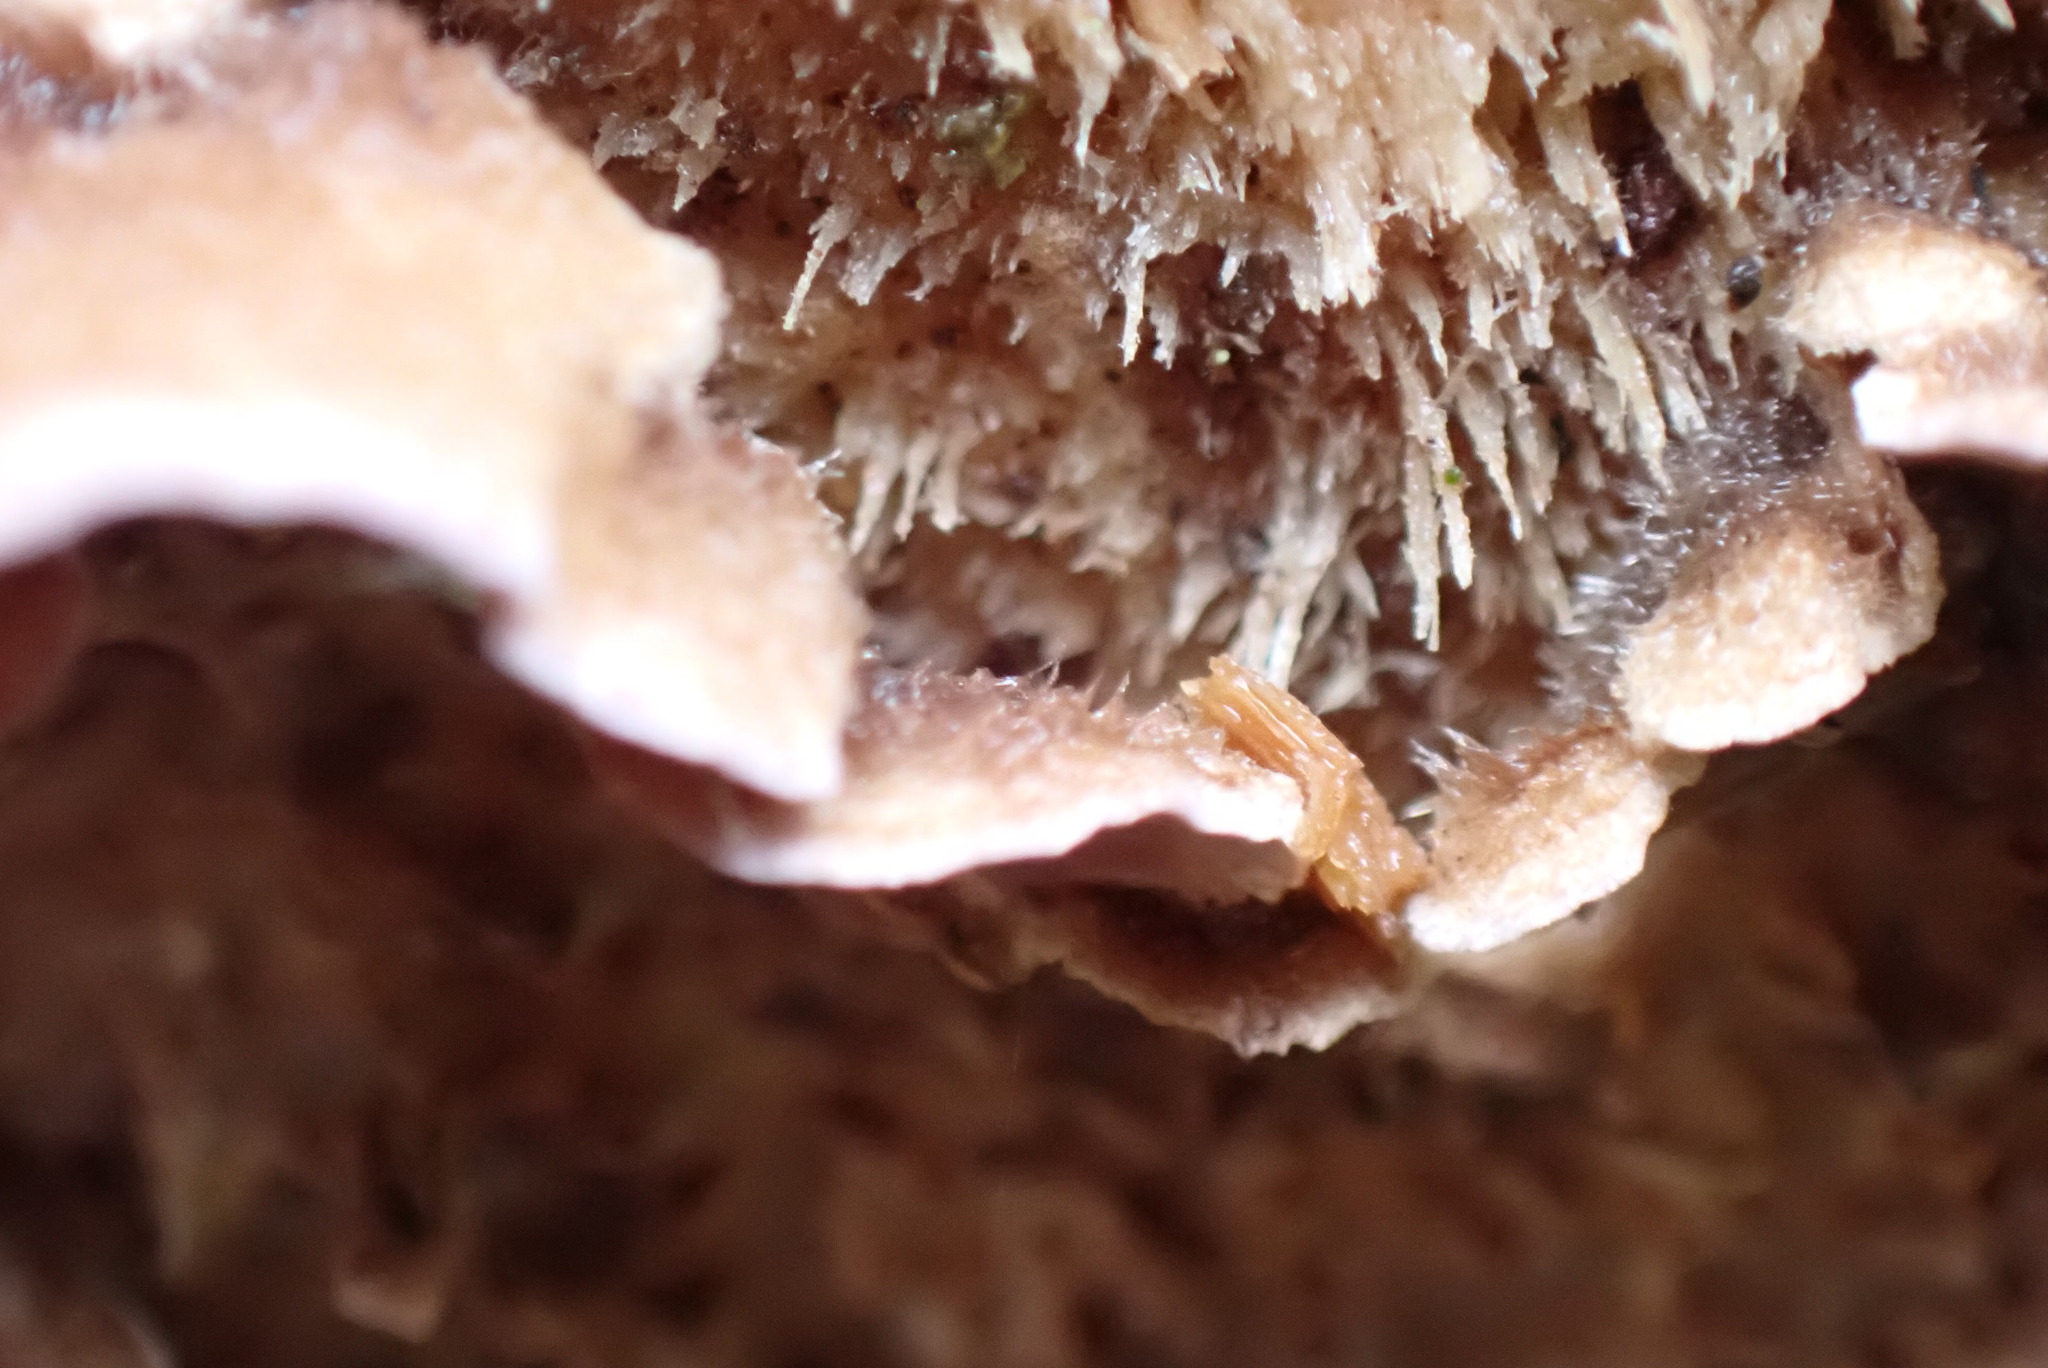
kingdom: Fungi
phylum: Basidiomycota
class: Agaricomycetes
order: Agaricales
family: Cyphellaceae
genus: Chondrostereum
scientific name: Chondrostereum purpureum
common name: Silver leaf disease
